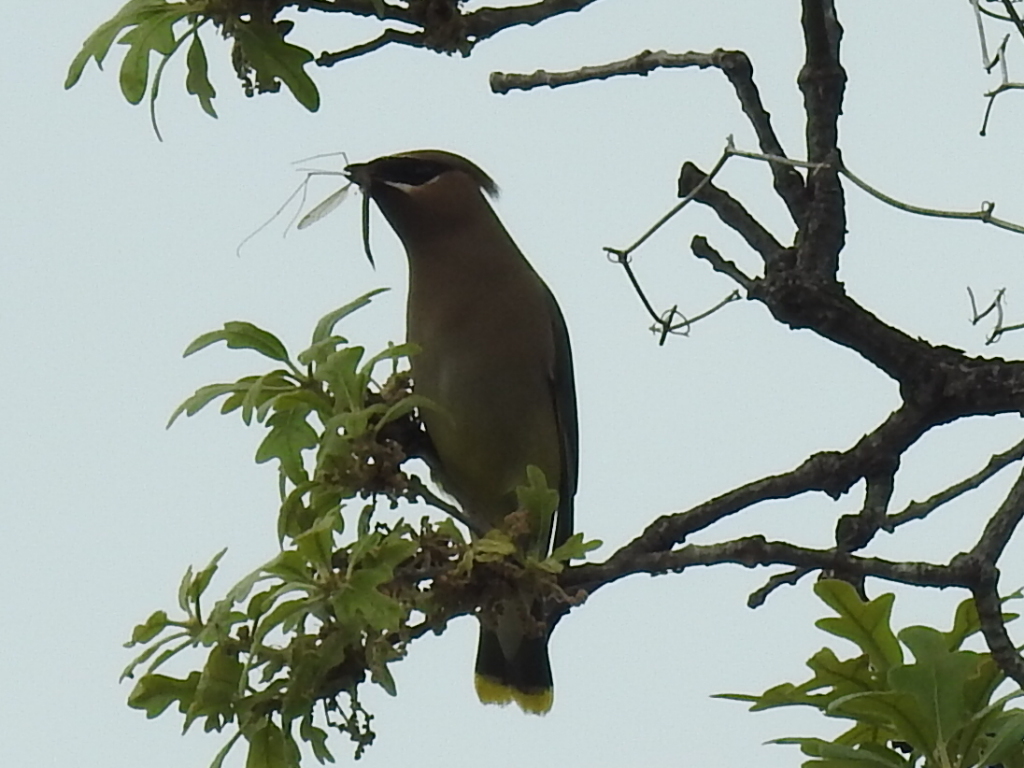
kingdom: Animalia
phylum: Chordata
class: Aves
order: Passeriformes
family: Bombycillidae
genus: Bombycilla
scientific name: Bombycilla cedrorum
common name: Cedar waxwing
